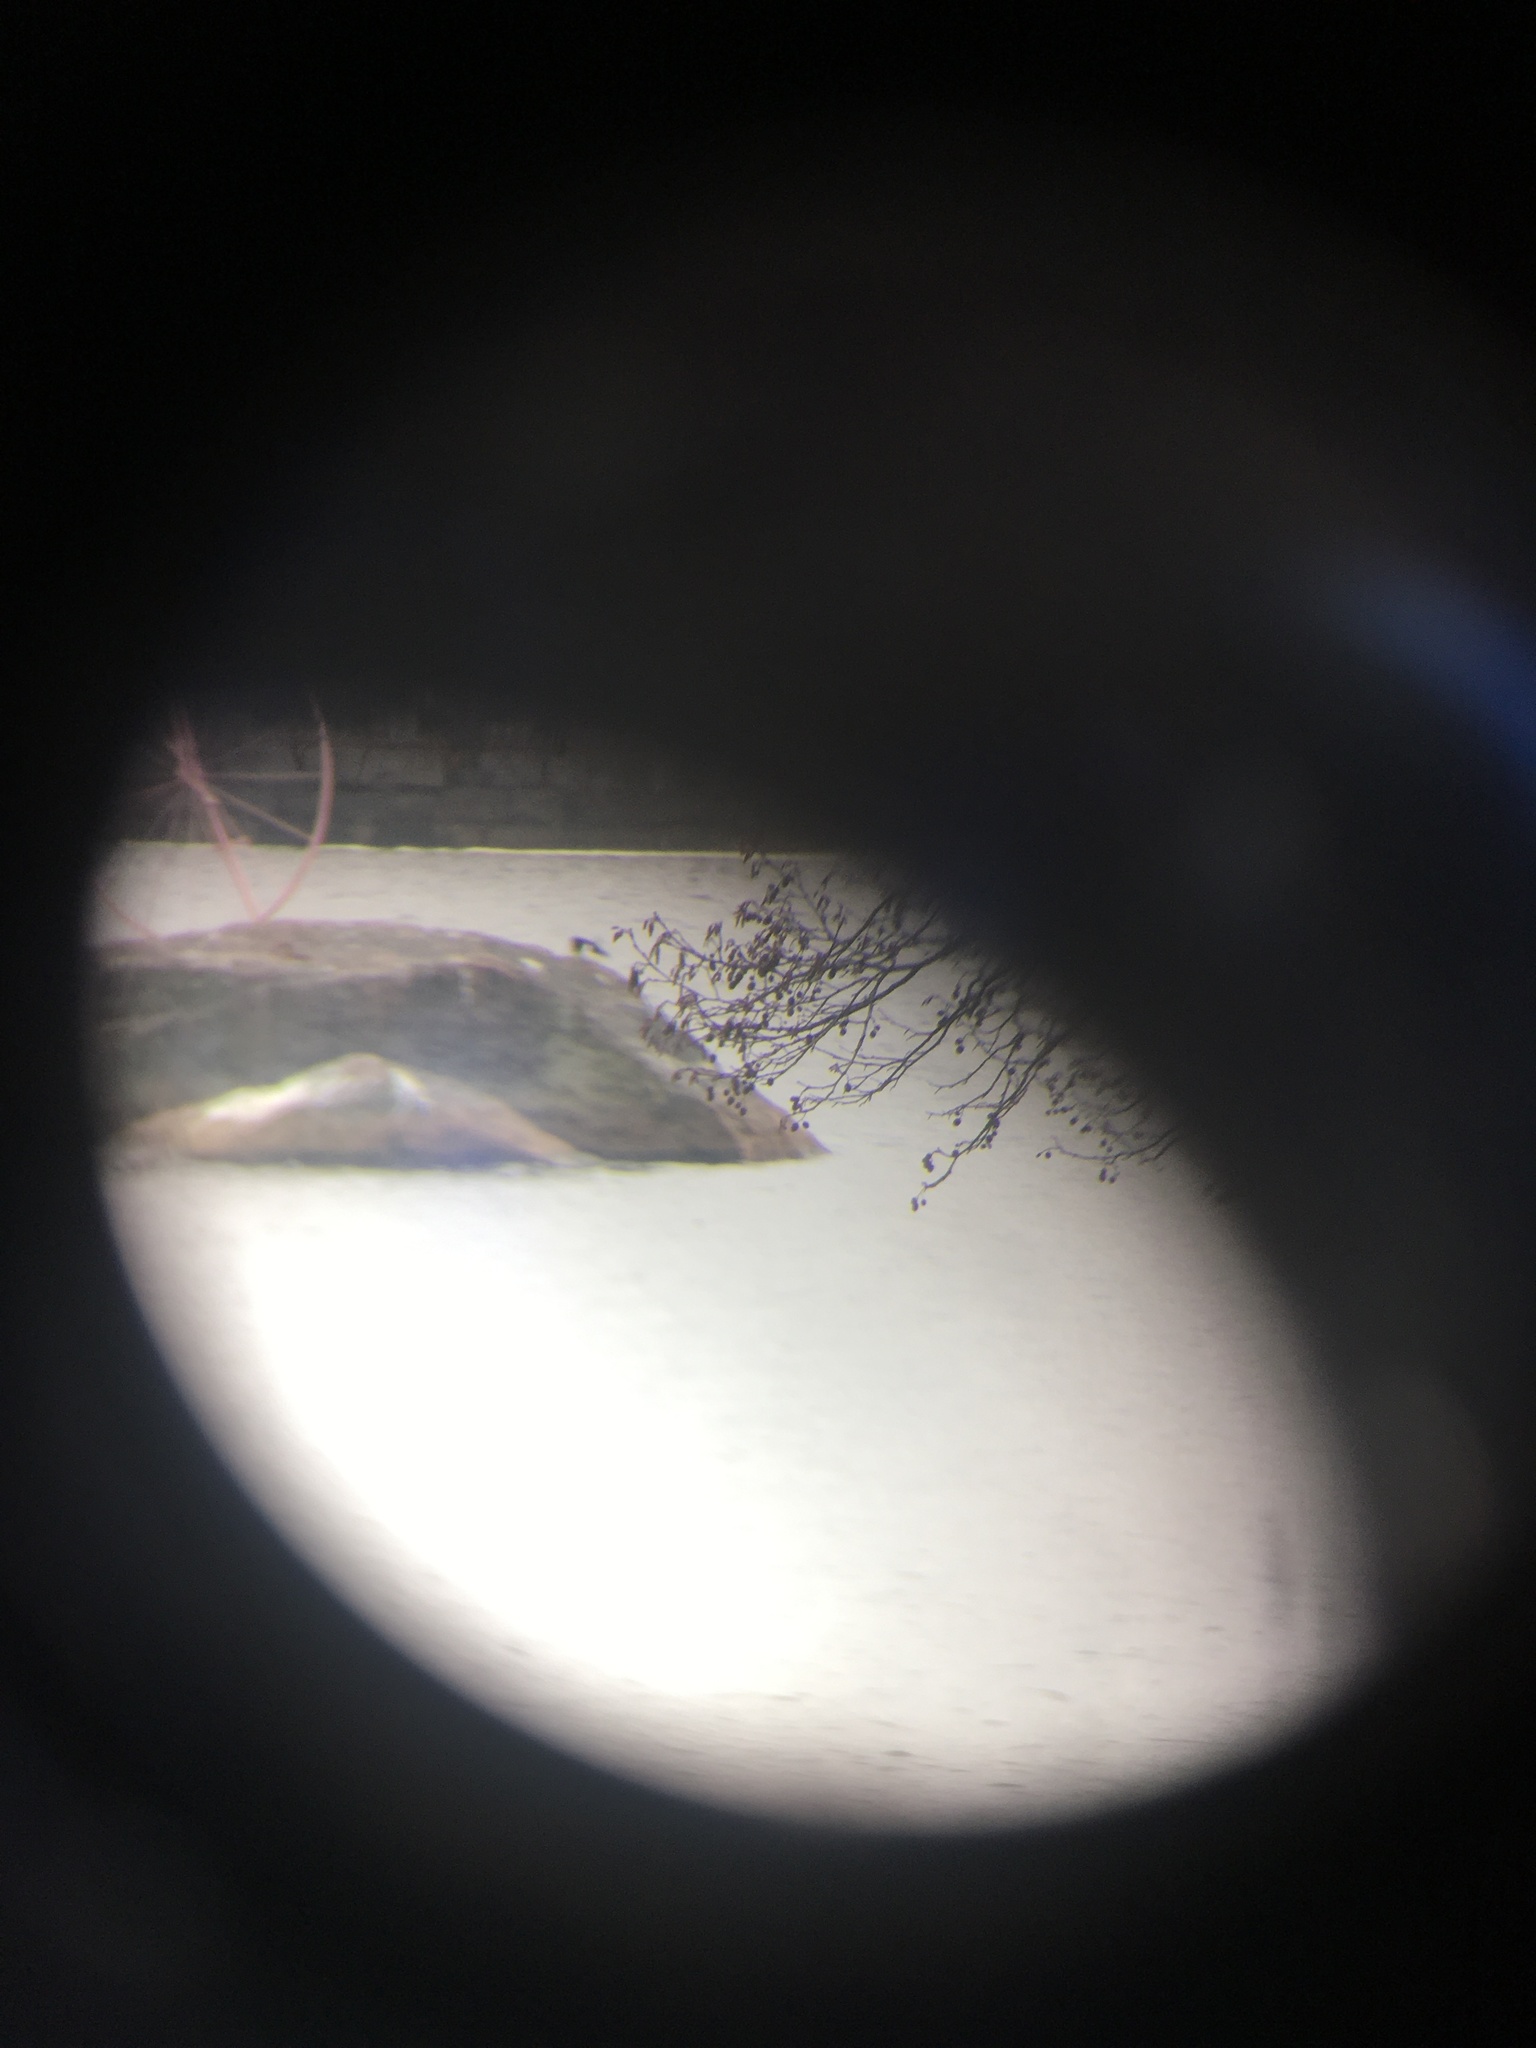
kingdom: Animalia
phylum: Chordata
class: Aves
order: Charadriiformes
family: Haematopodidae
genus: Haematopus
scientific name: Haematopus ostralegus
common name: Eurasian oystercatcher
